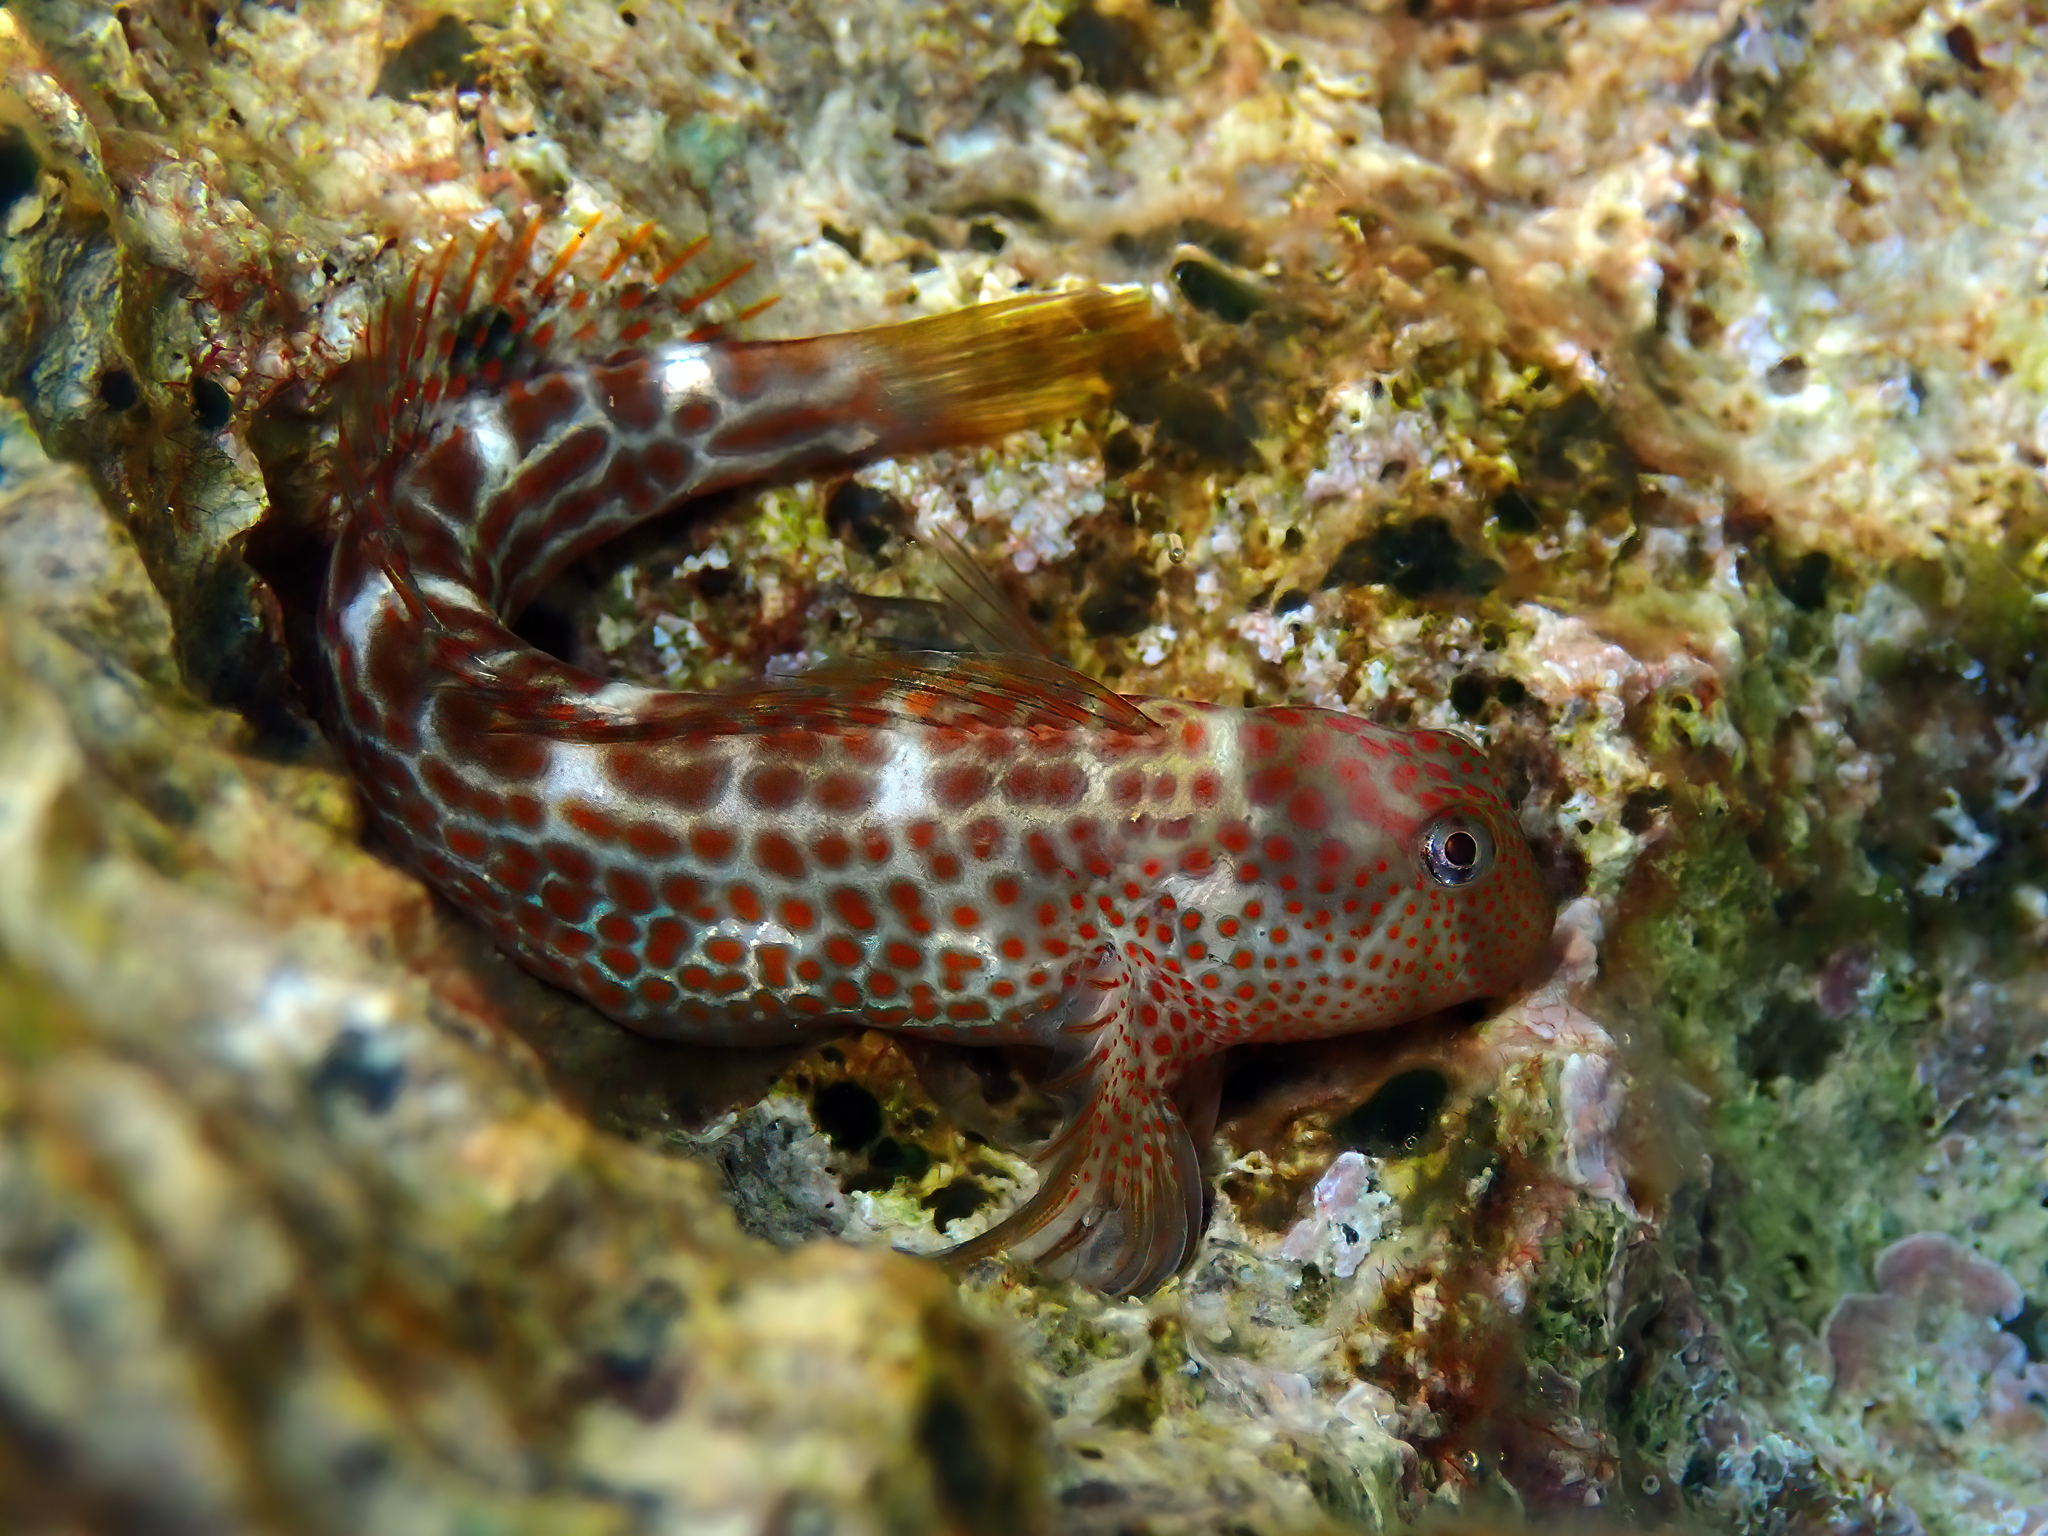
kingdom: Animalia
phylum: Chordata
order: Perciformes
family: Blenniidae
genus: Microlipophrys
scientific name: Microlipophrys canevae
